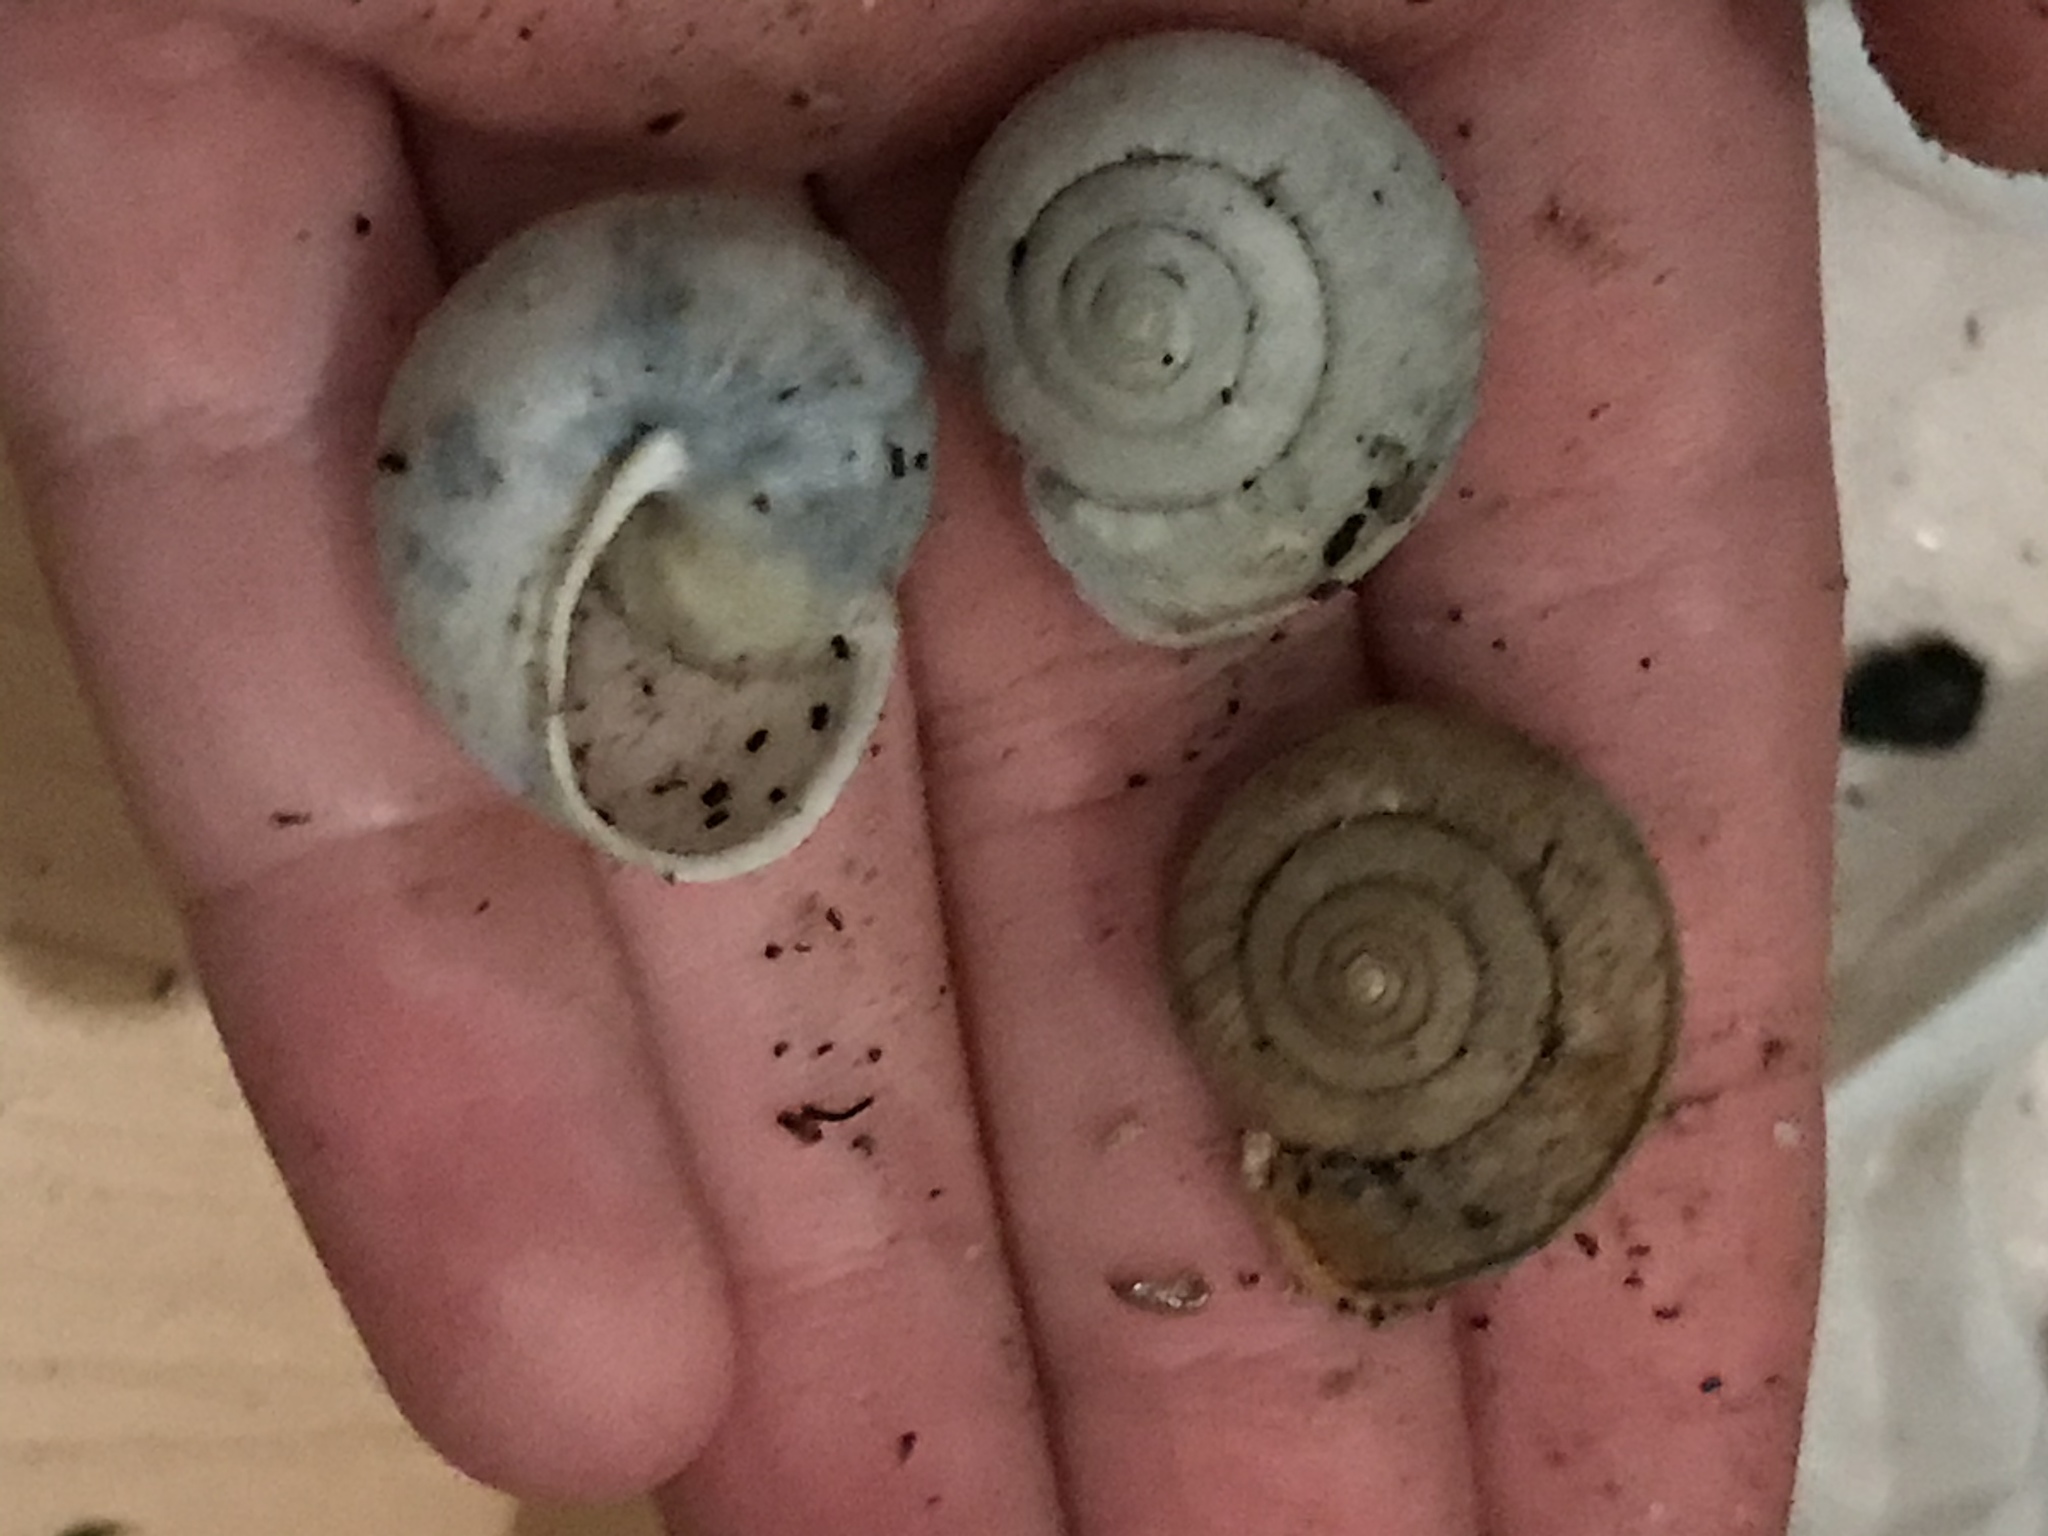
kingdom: Animalia
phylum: Mollusca
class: Gastropoda
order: Stylommatophora
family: Xanthonychidae
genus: Helminthoglypta
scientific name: Helminthoglypta nickliniana
